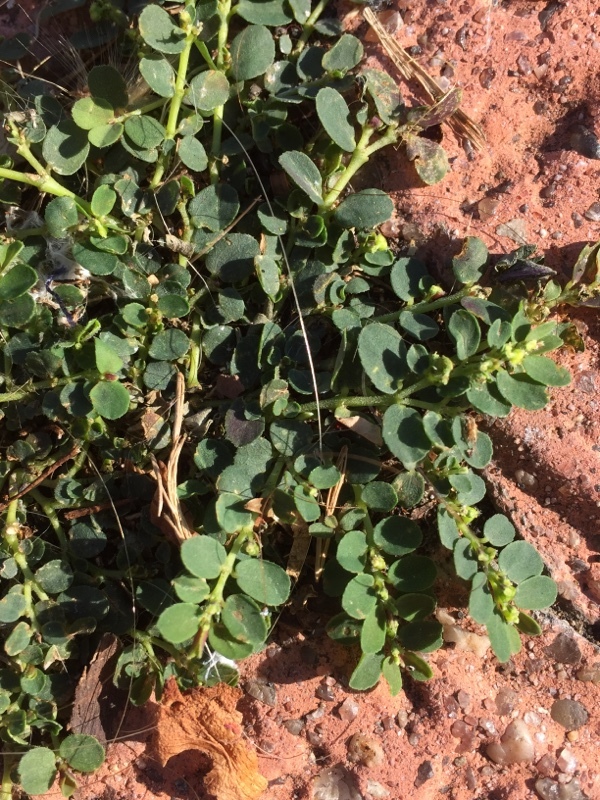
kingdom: Plantae
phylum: Tracheophyta
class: Magnoliopsida
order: Malpighiales
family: Euphorbiaceae
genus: Euphorbia
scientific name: Euphorbia prostrata
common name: Prostrate sandmat
